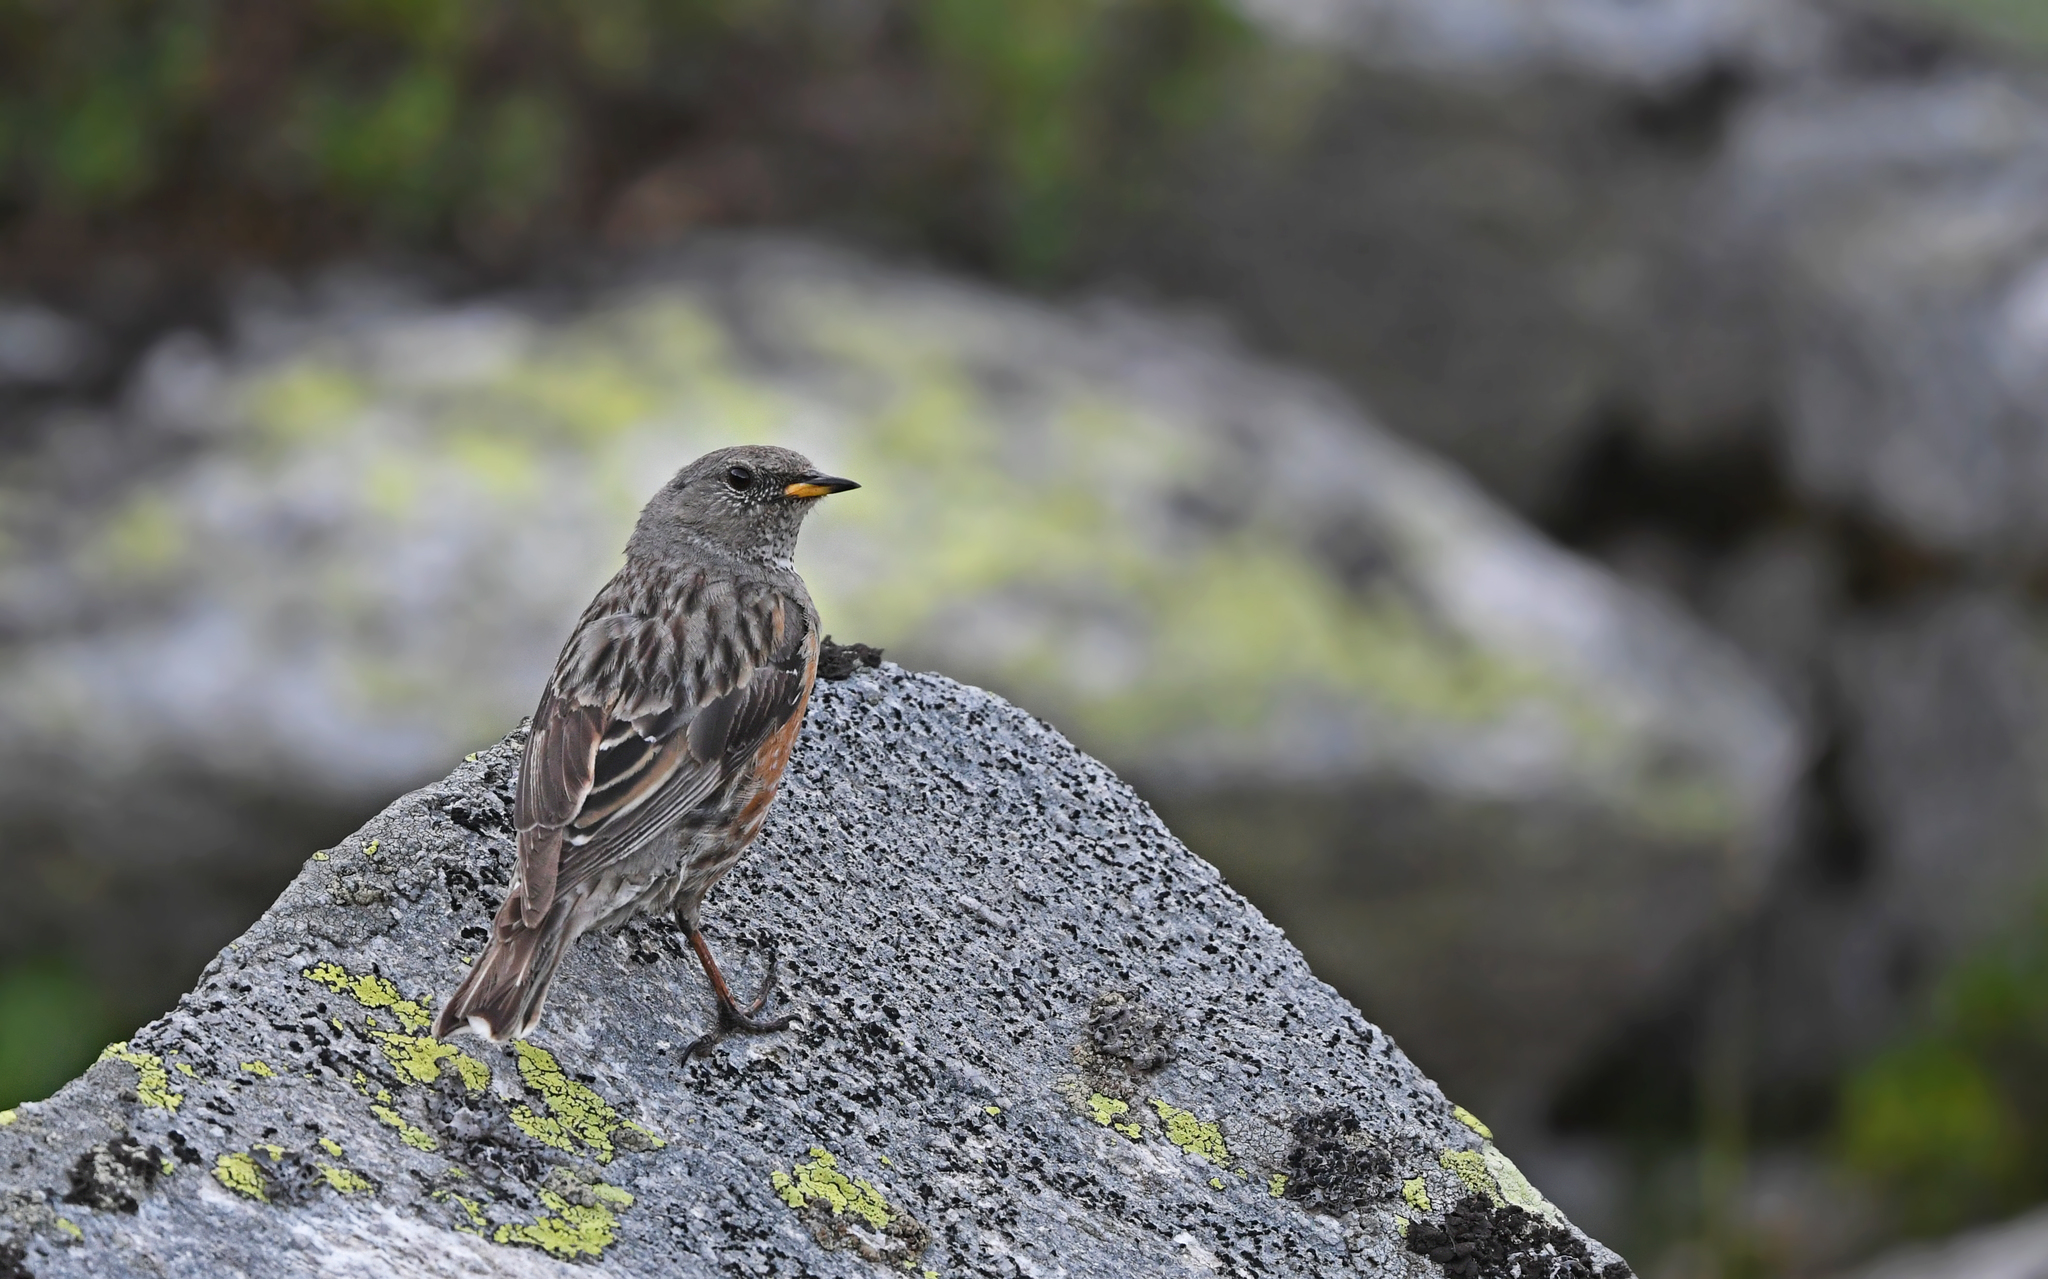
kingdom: Animalia
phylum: Chordata
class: Aves
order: Passeriformes
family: Prunellidae
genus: Prunella
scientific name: Prunella collaris
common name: Alpine accentor
